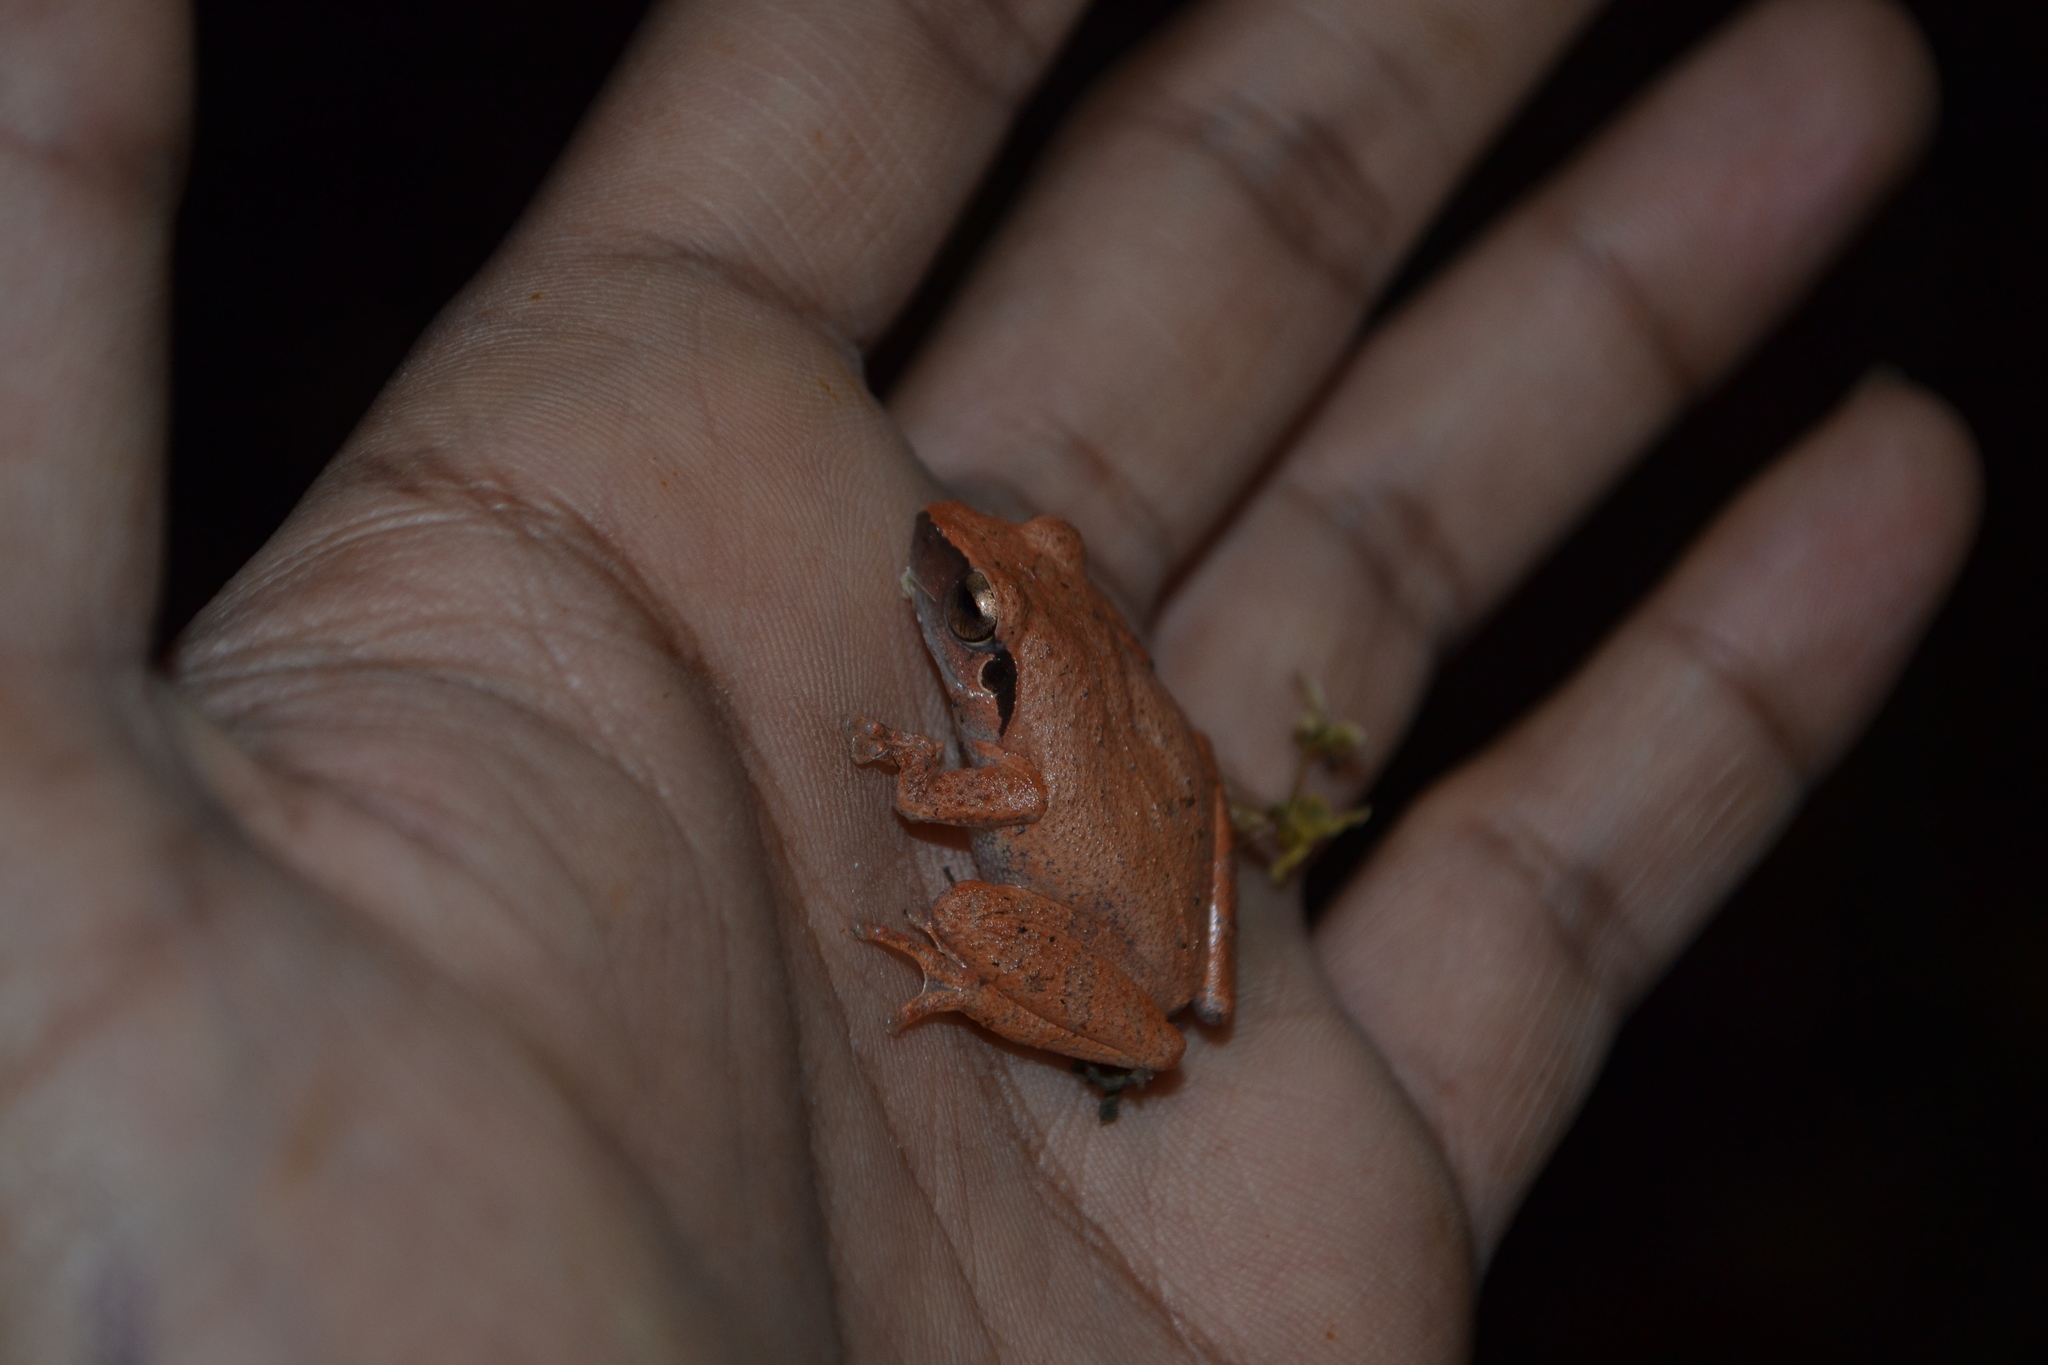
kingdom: Animalia
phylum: Chordata
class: Amphibia
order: Anura
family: Rhacophoridae
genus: Pseudophilautus
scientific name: Pseudophilautus wynaadensis
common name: Dark-eared bush frog
